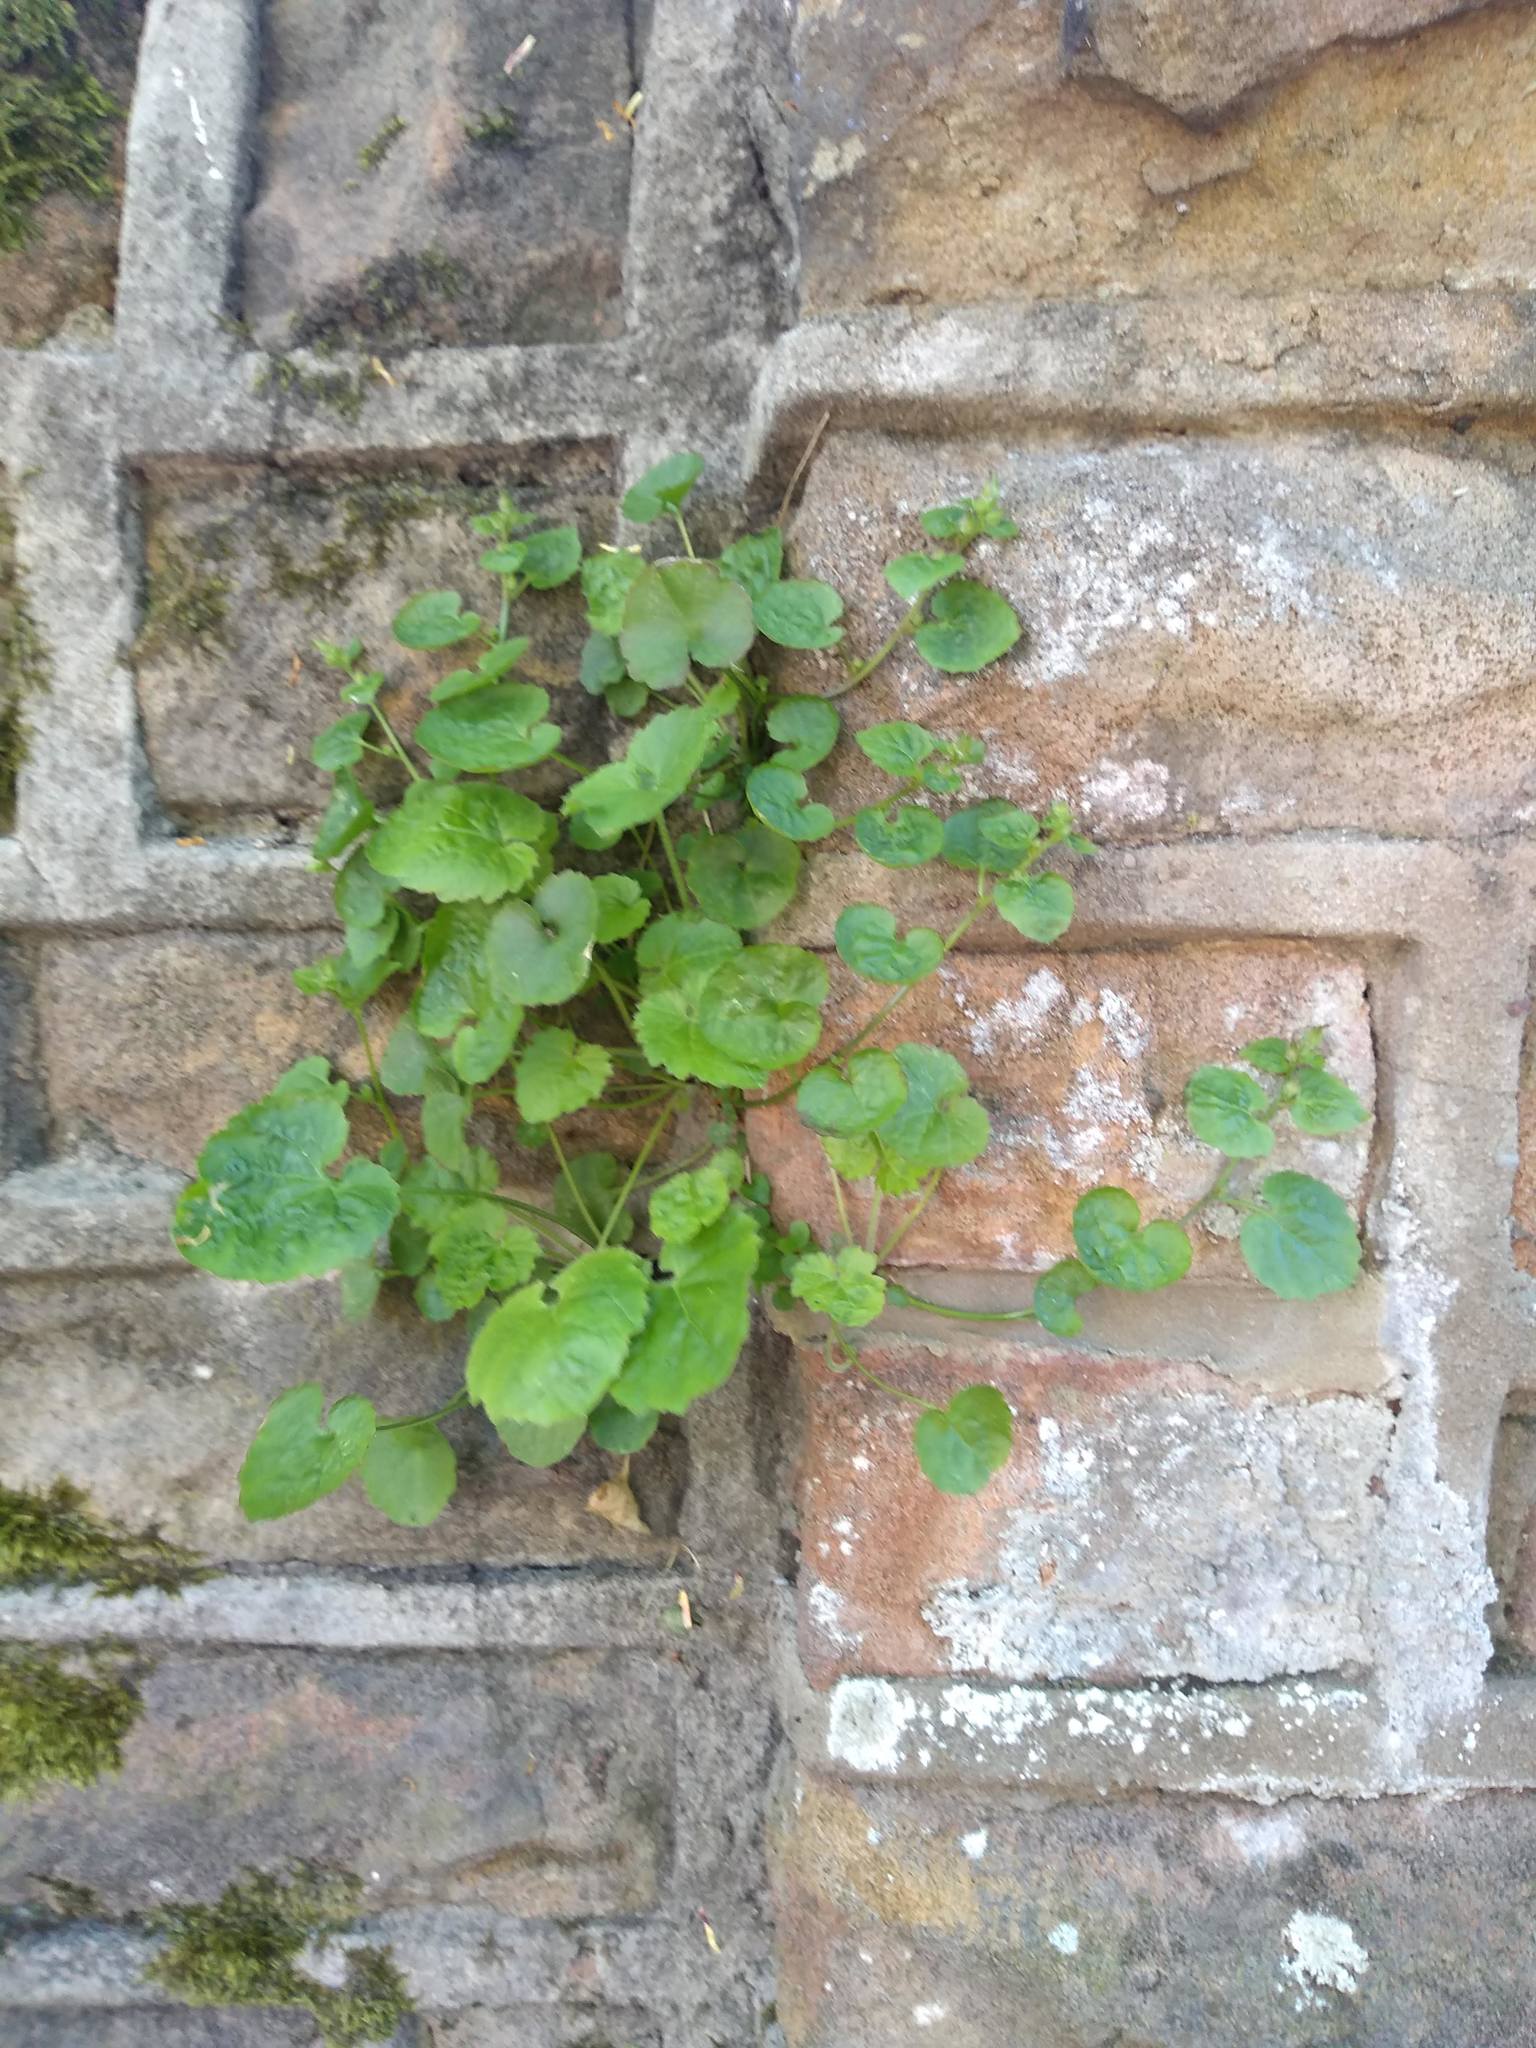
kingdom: Plantae
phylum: Tracheophyta
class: Magnoliopsida
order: Asterales
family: Campanulaceae
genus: Campanula
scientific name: Campanula poscharskyana
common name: Trailing bellflower
